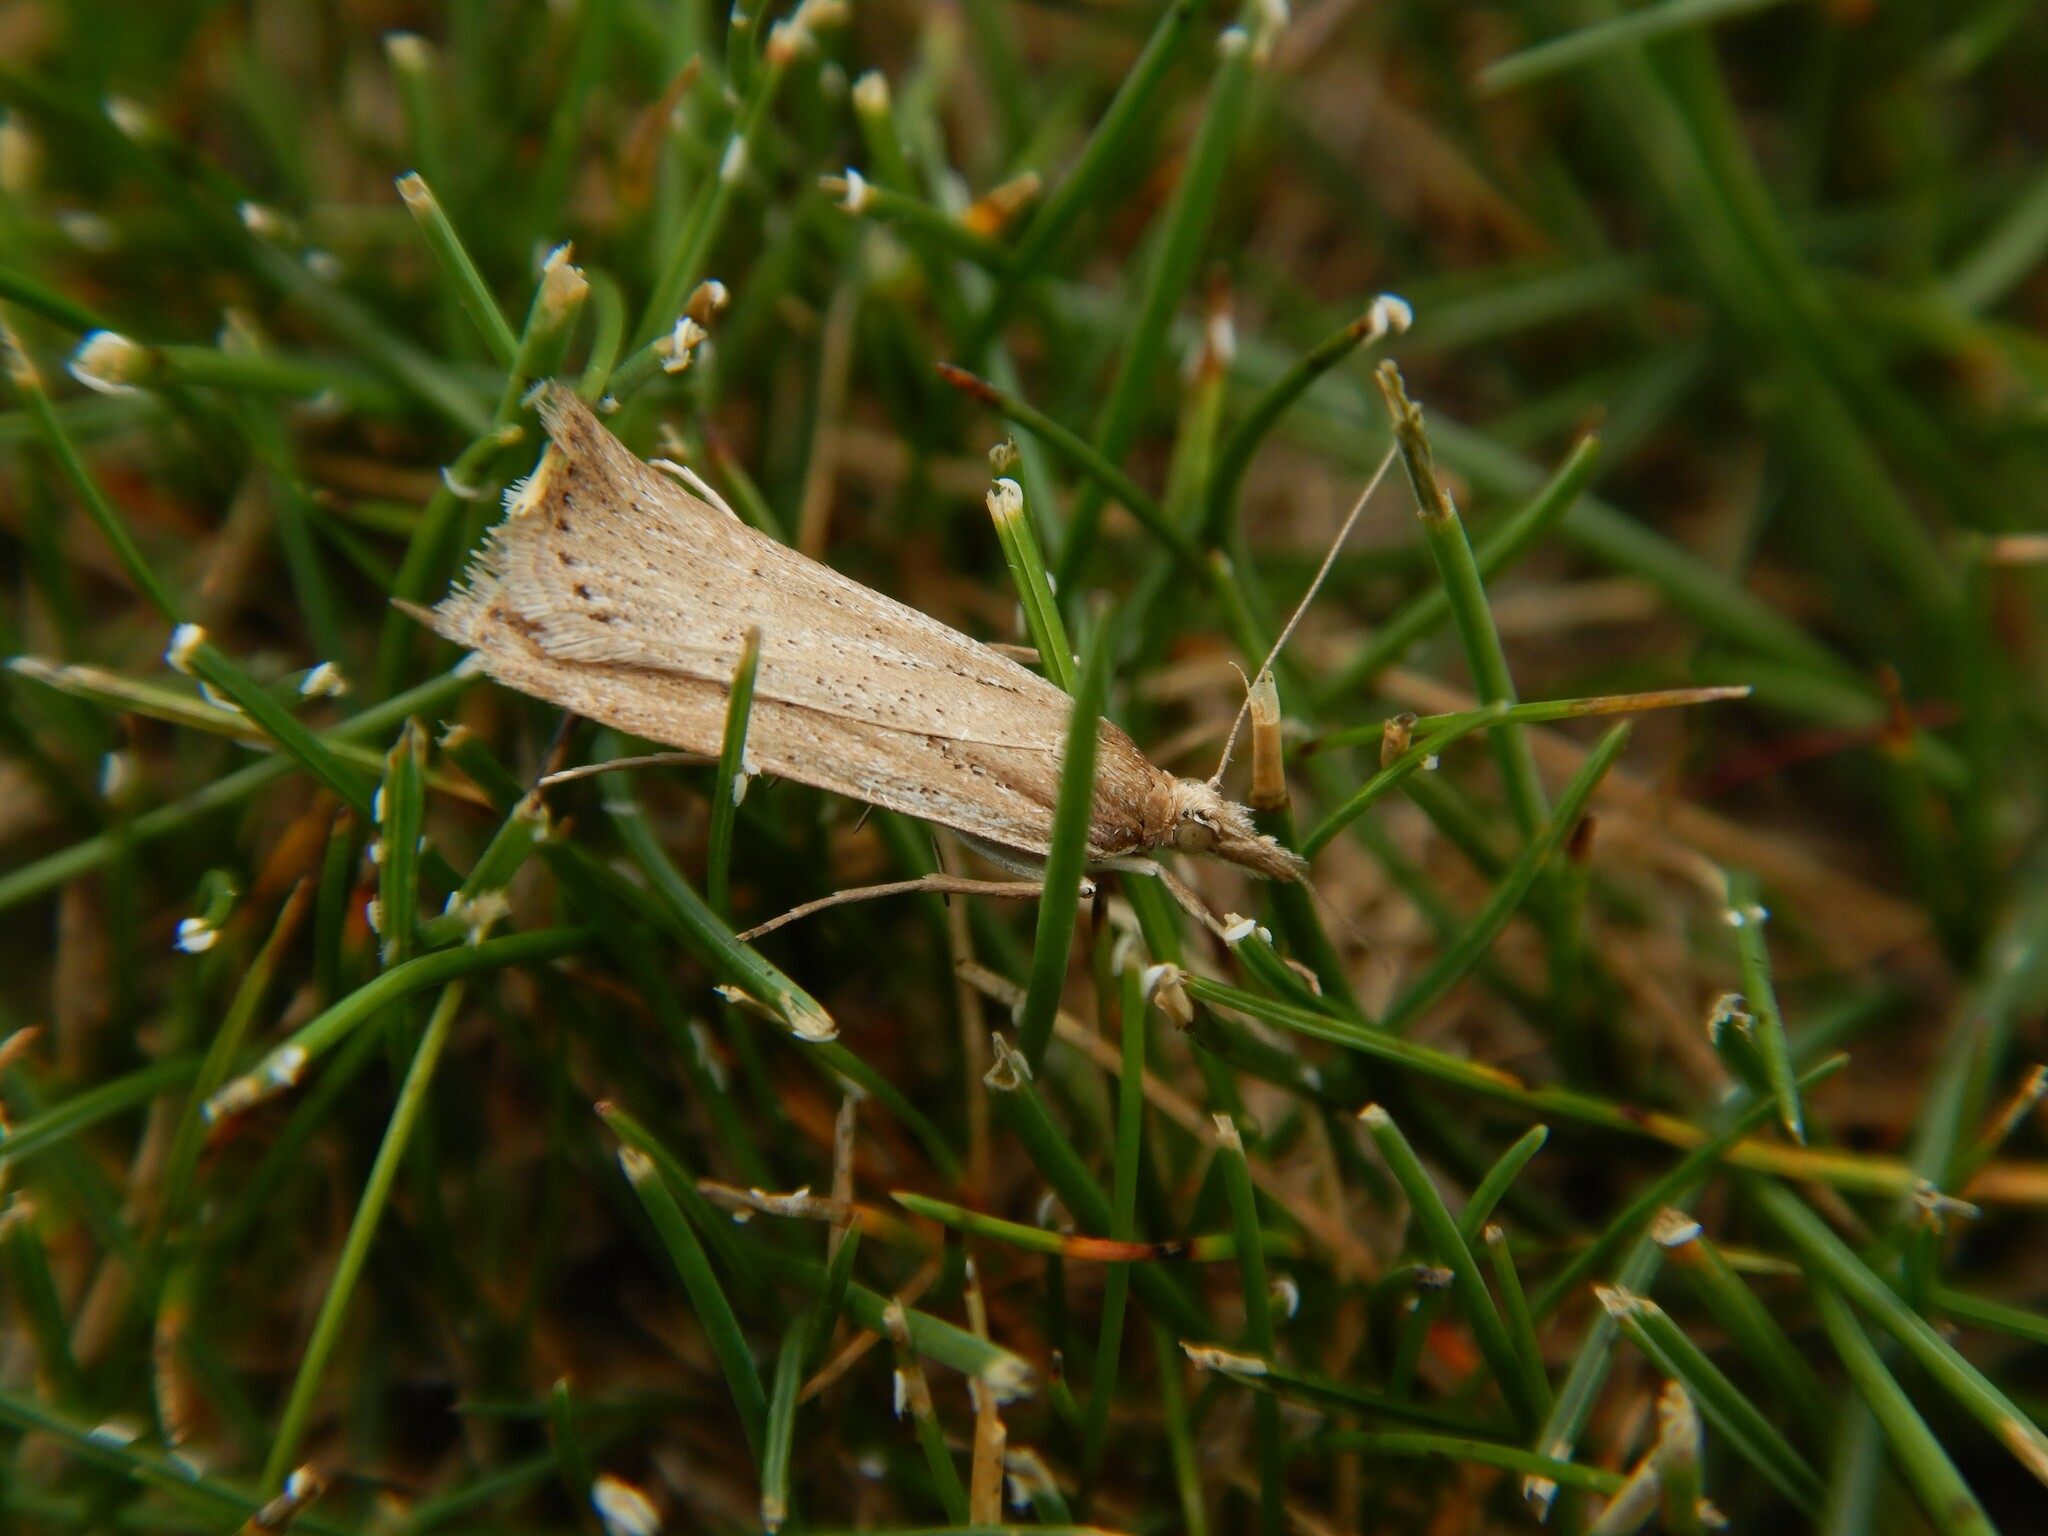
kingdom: Animalia
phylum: Arthropoda
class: Insecta
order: Lepidoptera
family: Crambidae
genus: Eudonia
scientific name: Eudonia sabulosella
